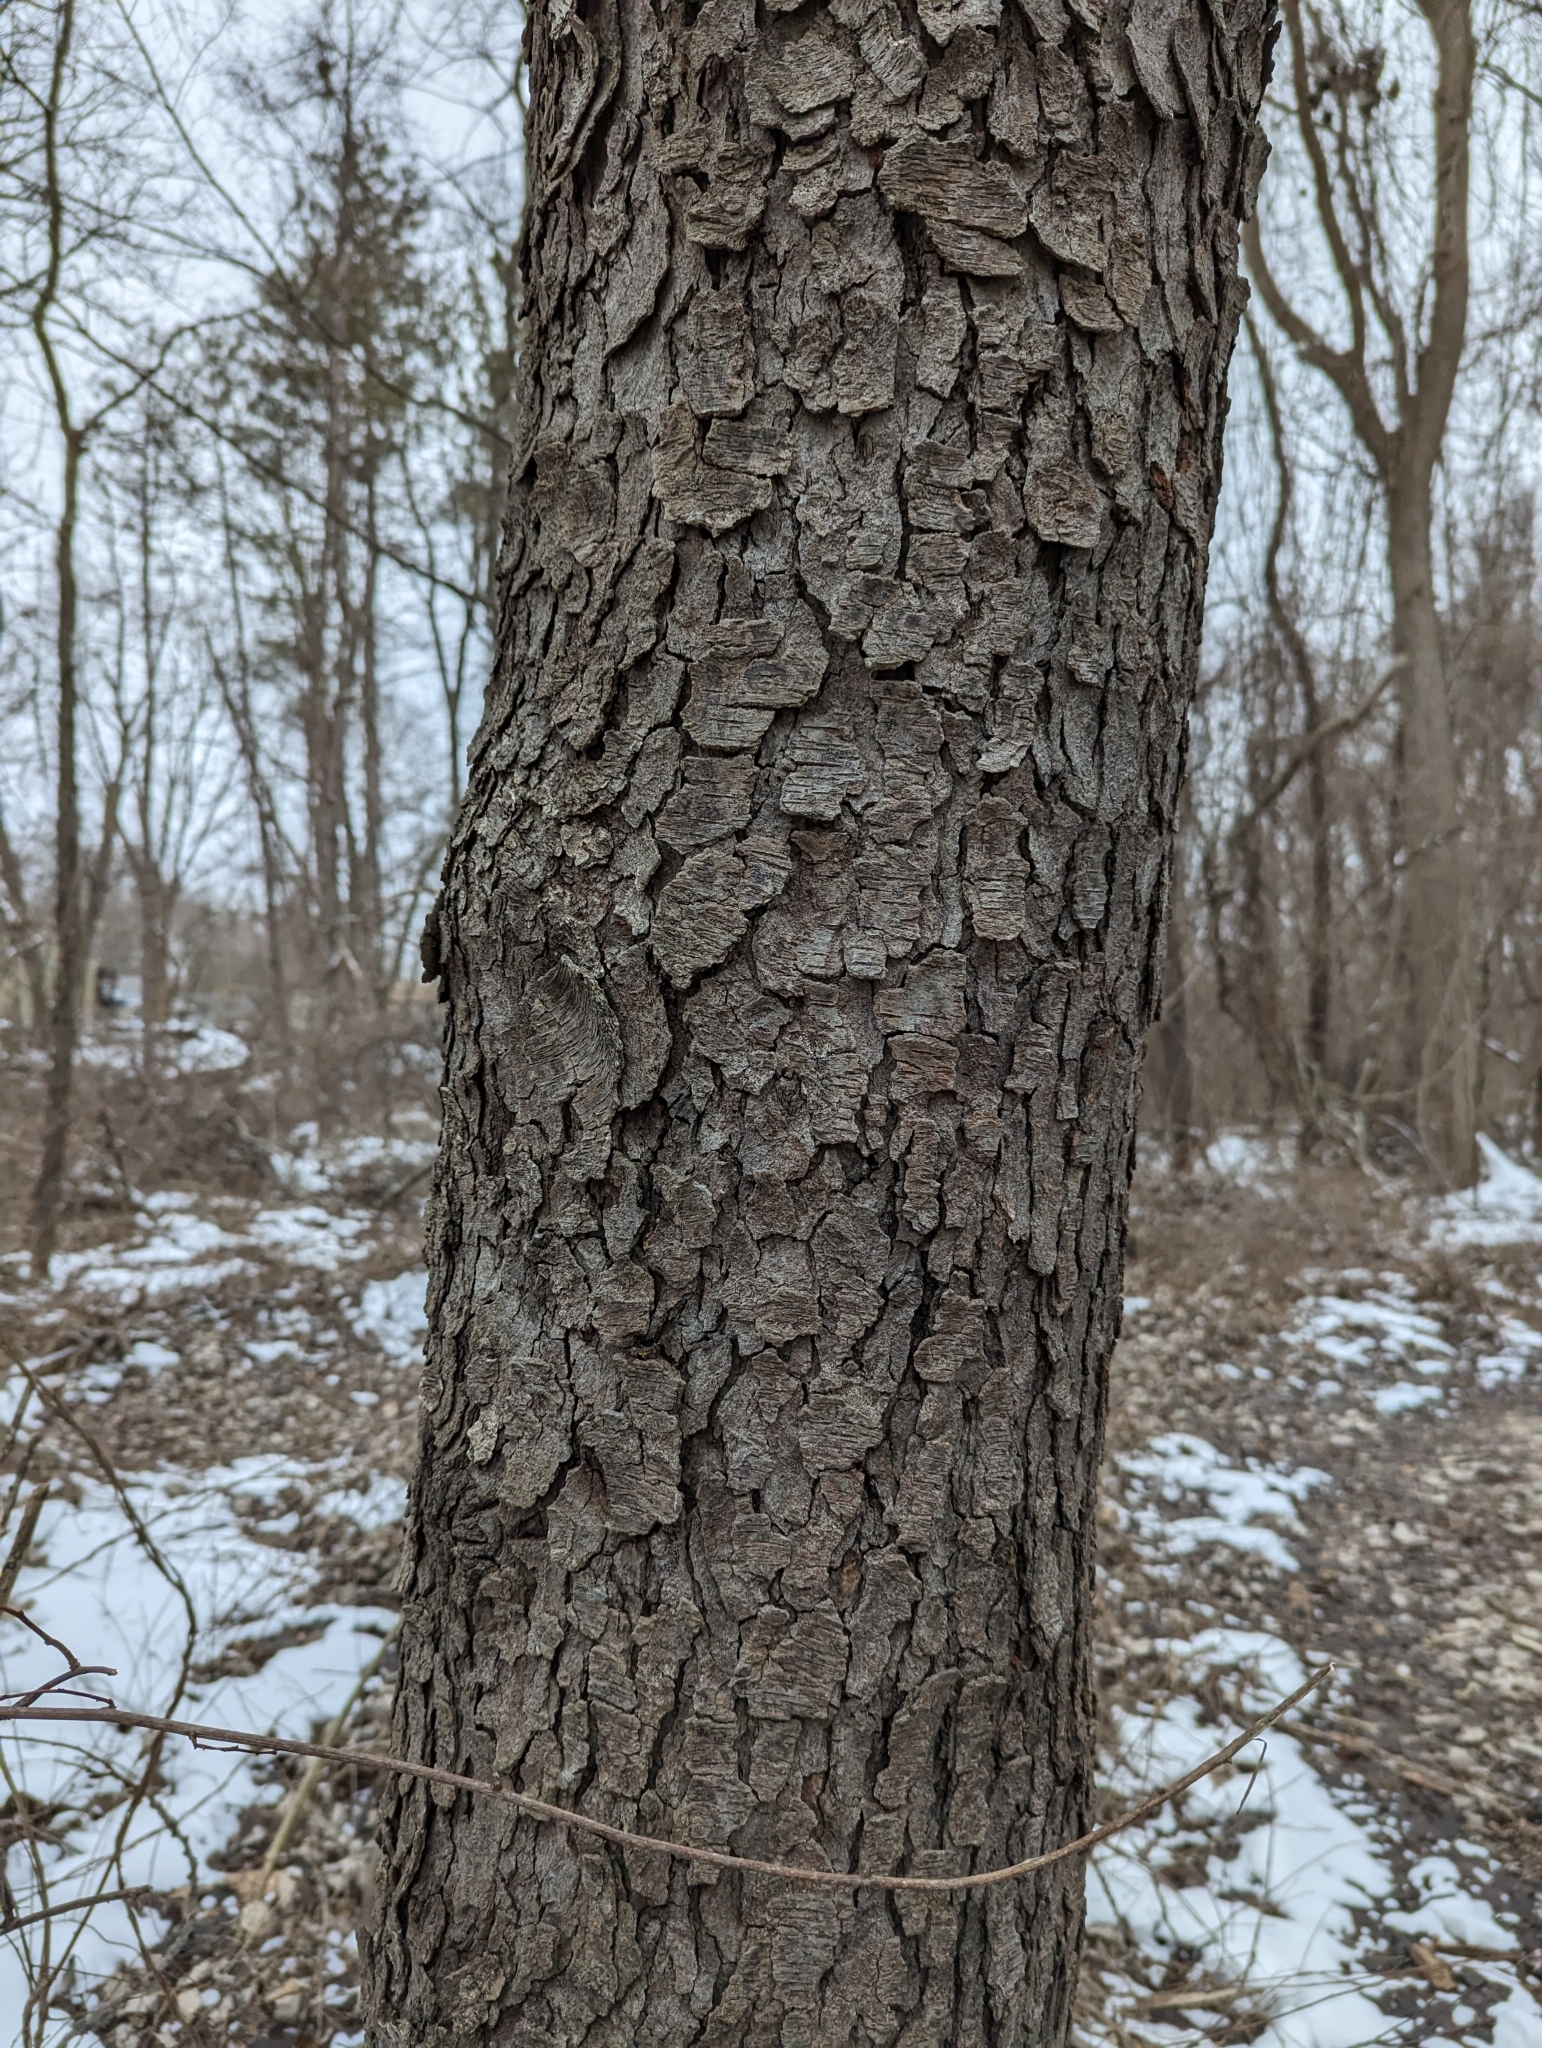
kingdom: Plantae
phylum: Tracheophyta
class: Magnoliopsida
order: Rosales
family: Rosaceae
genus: Prunus
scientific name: Prunus serotina
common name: Black cherry
